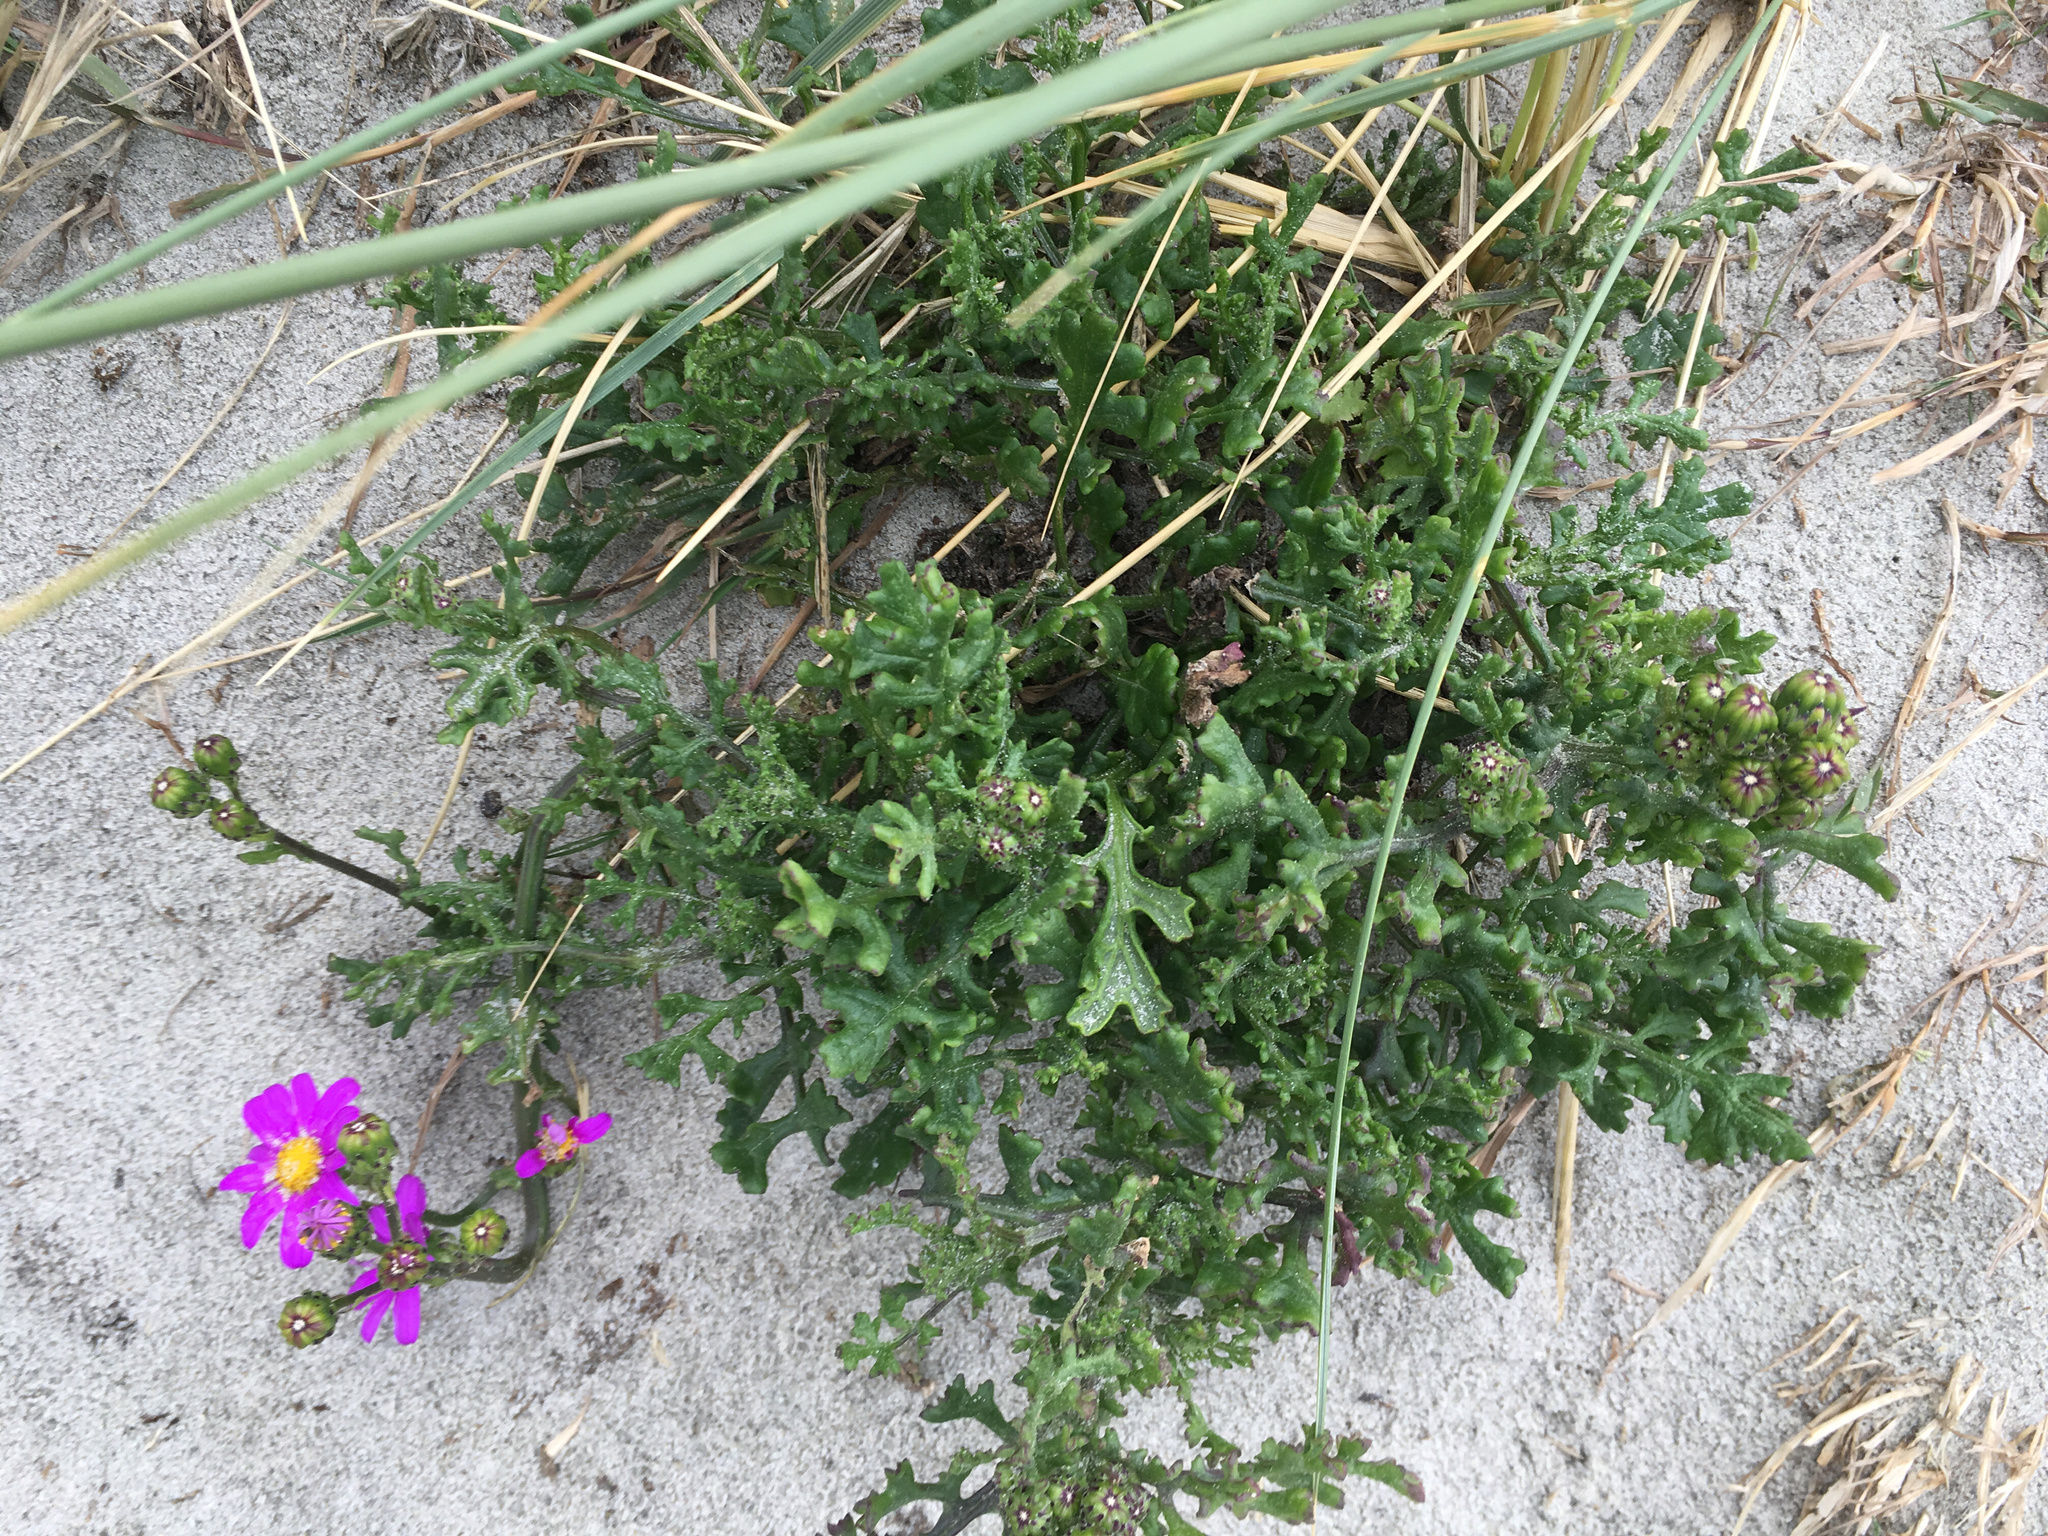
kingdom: Plantae
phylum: Tracheophyta
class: Magnoliopsida
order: Asterales
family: Asteraceae
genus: Senecio
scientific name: Senecio elegans
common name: Purple groundsel
